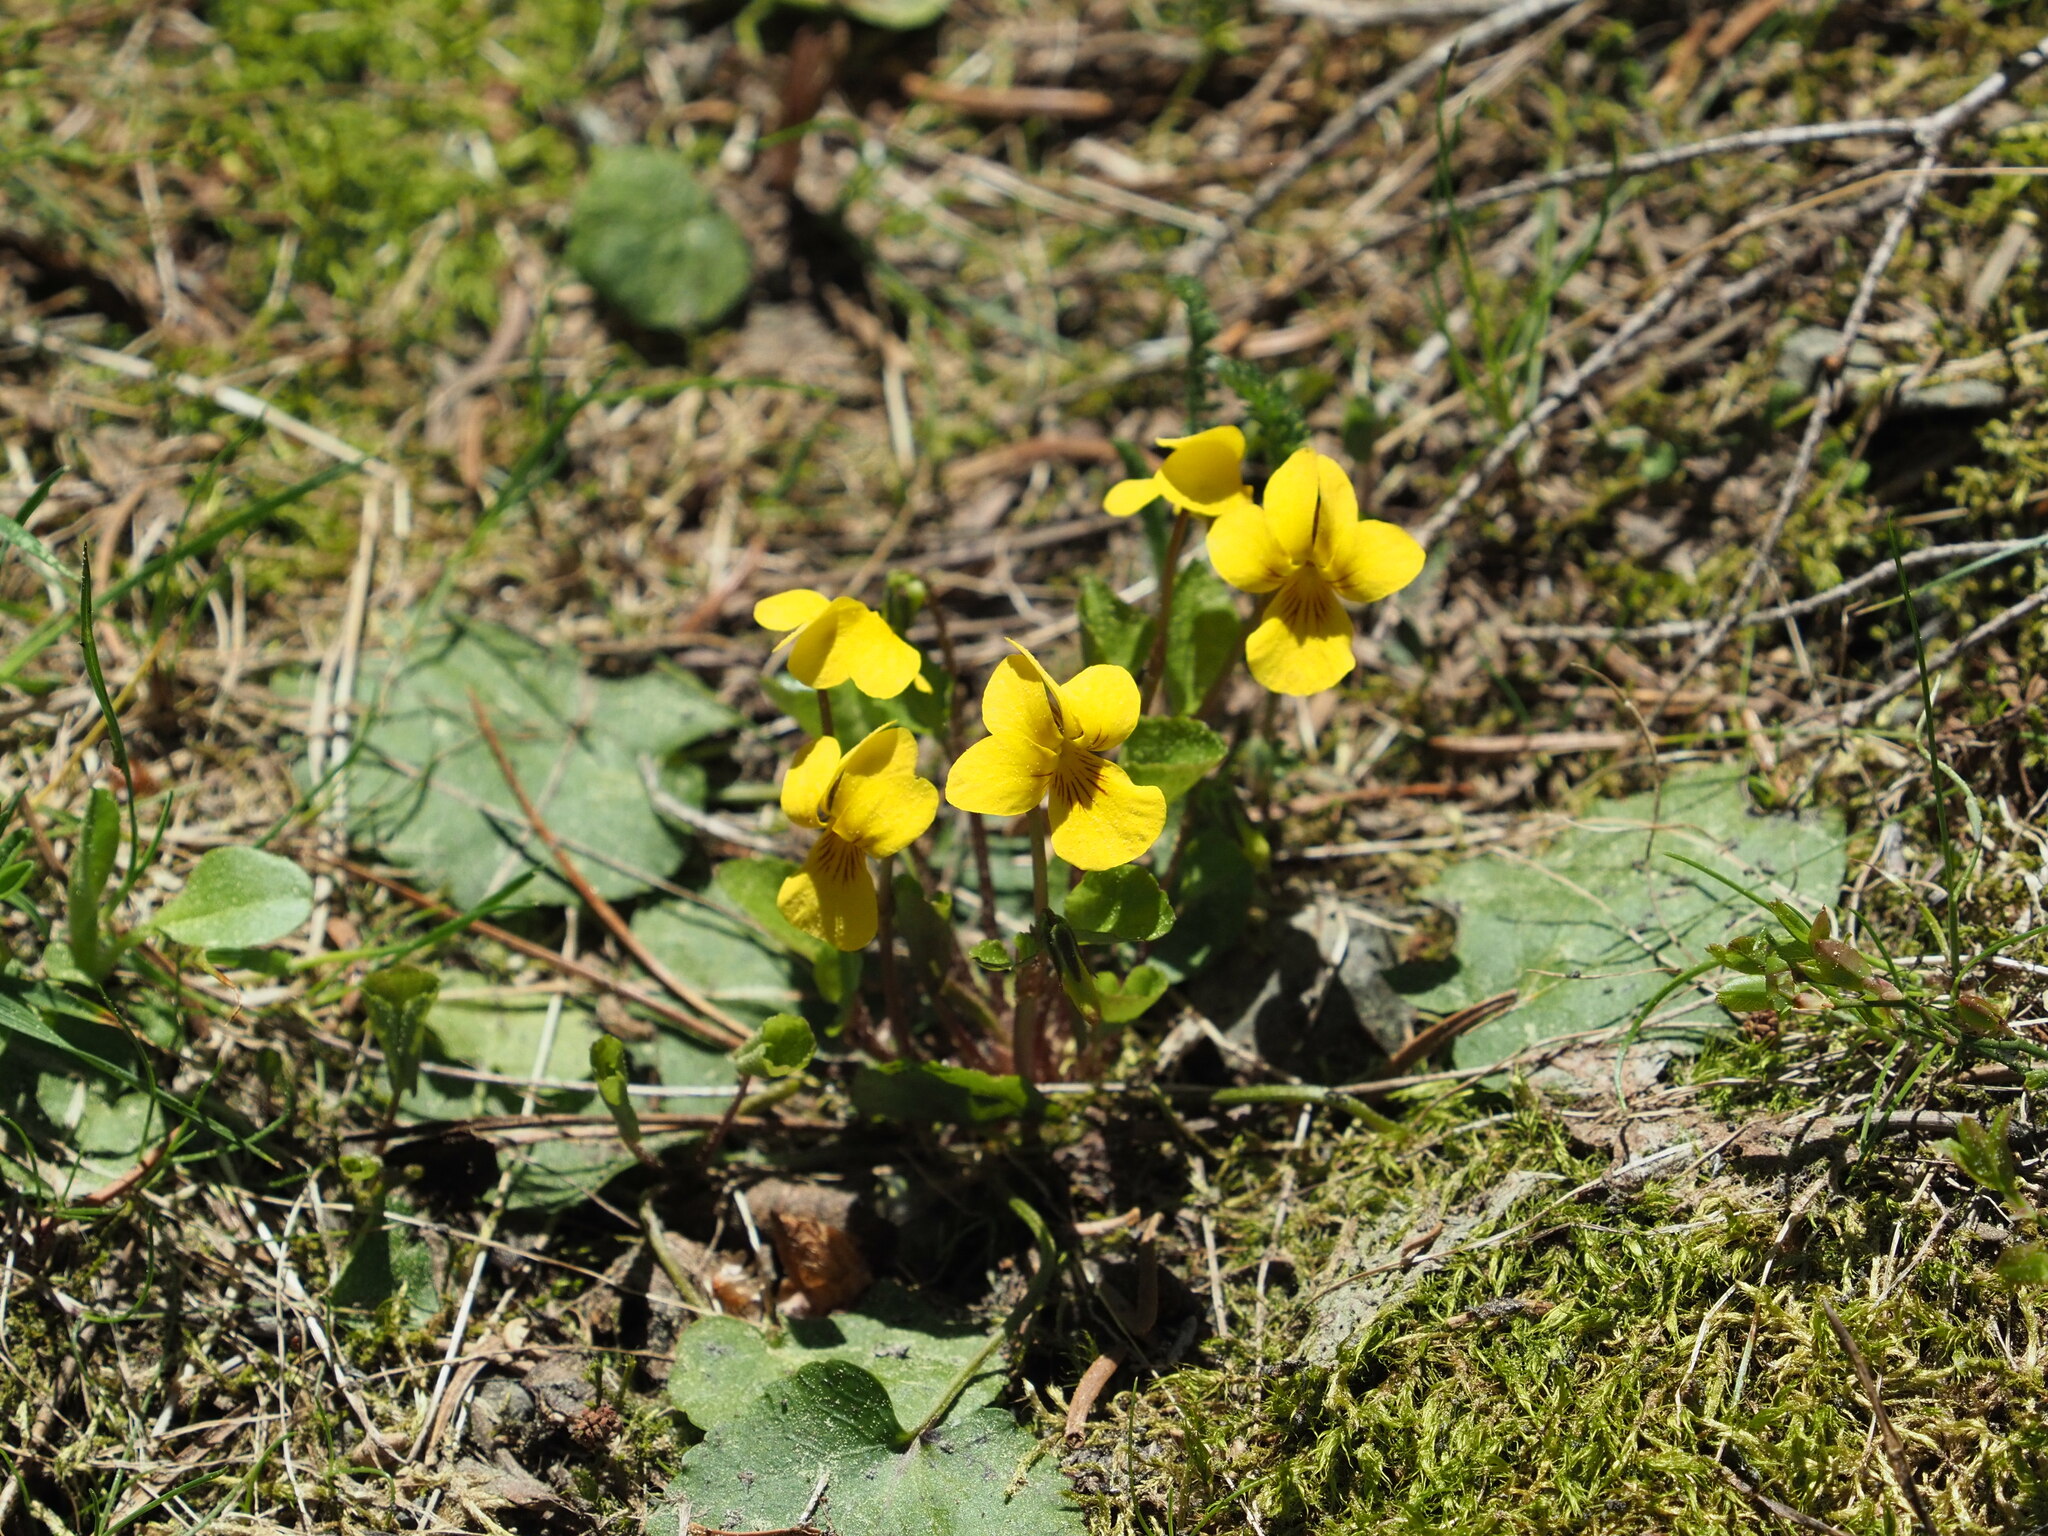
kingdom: Plantae
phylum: Tracheophyta
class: Magnoliopsida
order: Malpighiales
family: Violaceae
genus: Viola
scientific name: Viola orbiculata
